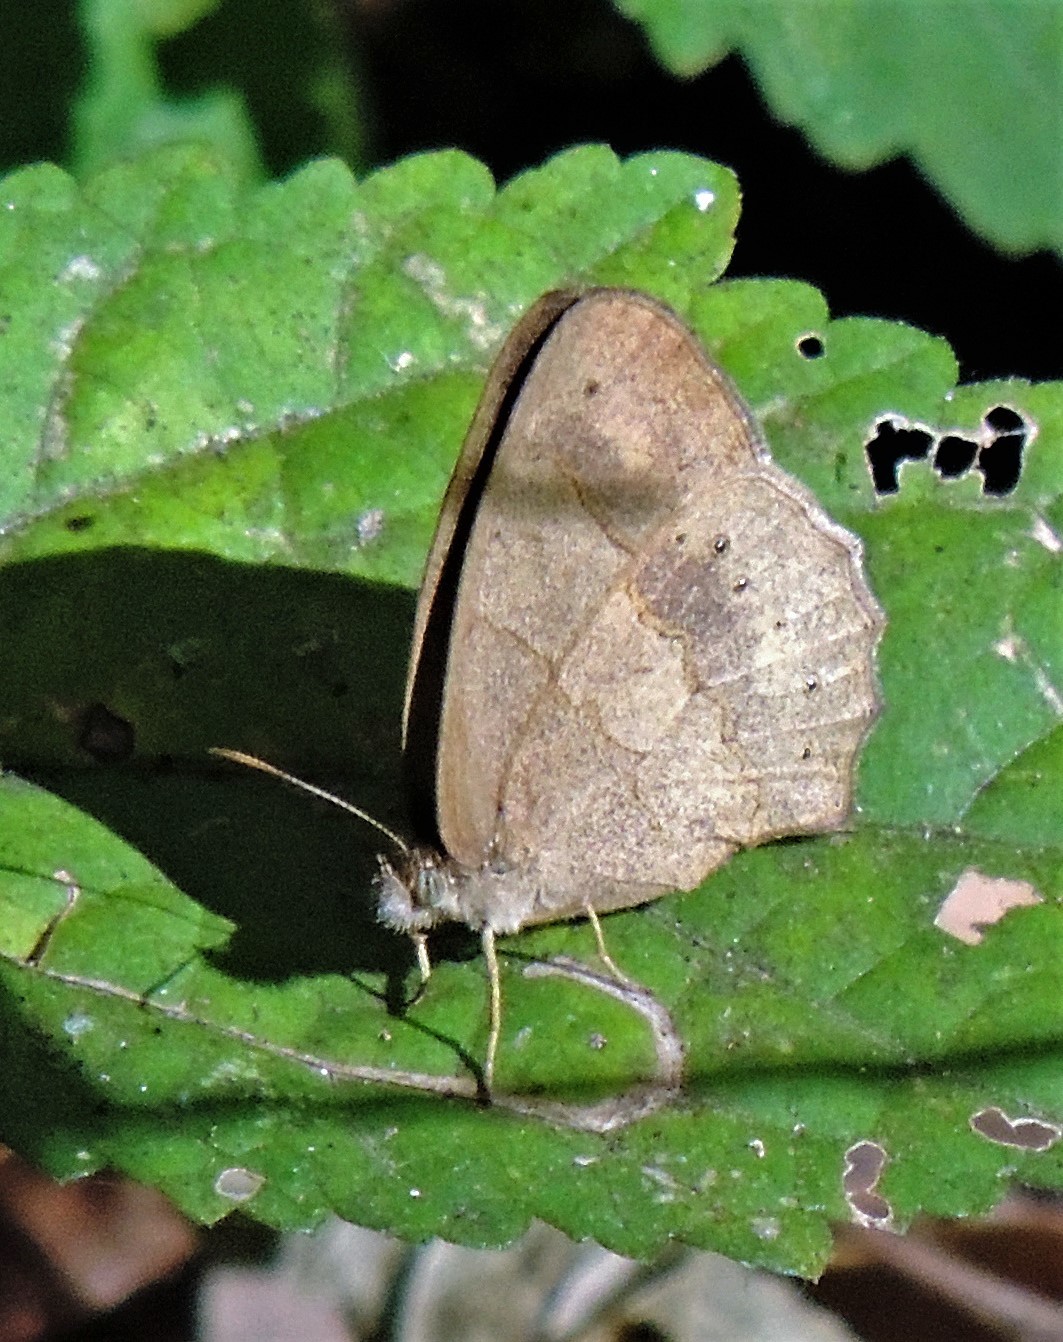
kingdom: Animalia
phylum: Arthropoda
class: Insecta
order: Lepidoptera
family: Nymphalidae
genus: Paryphthimoides
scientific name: Paryphthimoides poltys
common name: Poltys satyr
